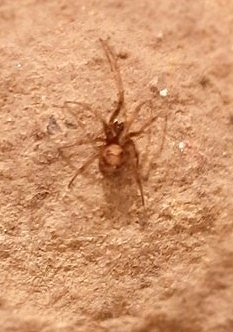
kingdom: Animalia
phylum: Arthropoda
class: Arachnida
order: Araneae
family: Theridiidae
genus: Steatoda
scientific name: Steatoda triangulosa
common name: Triangulate bud spider
